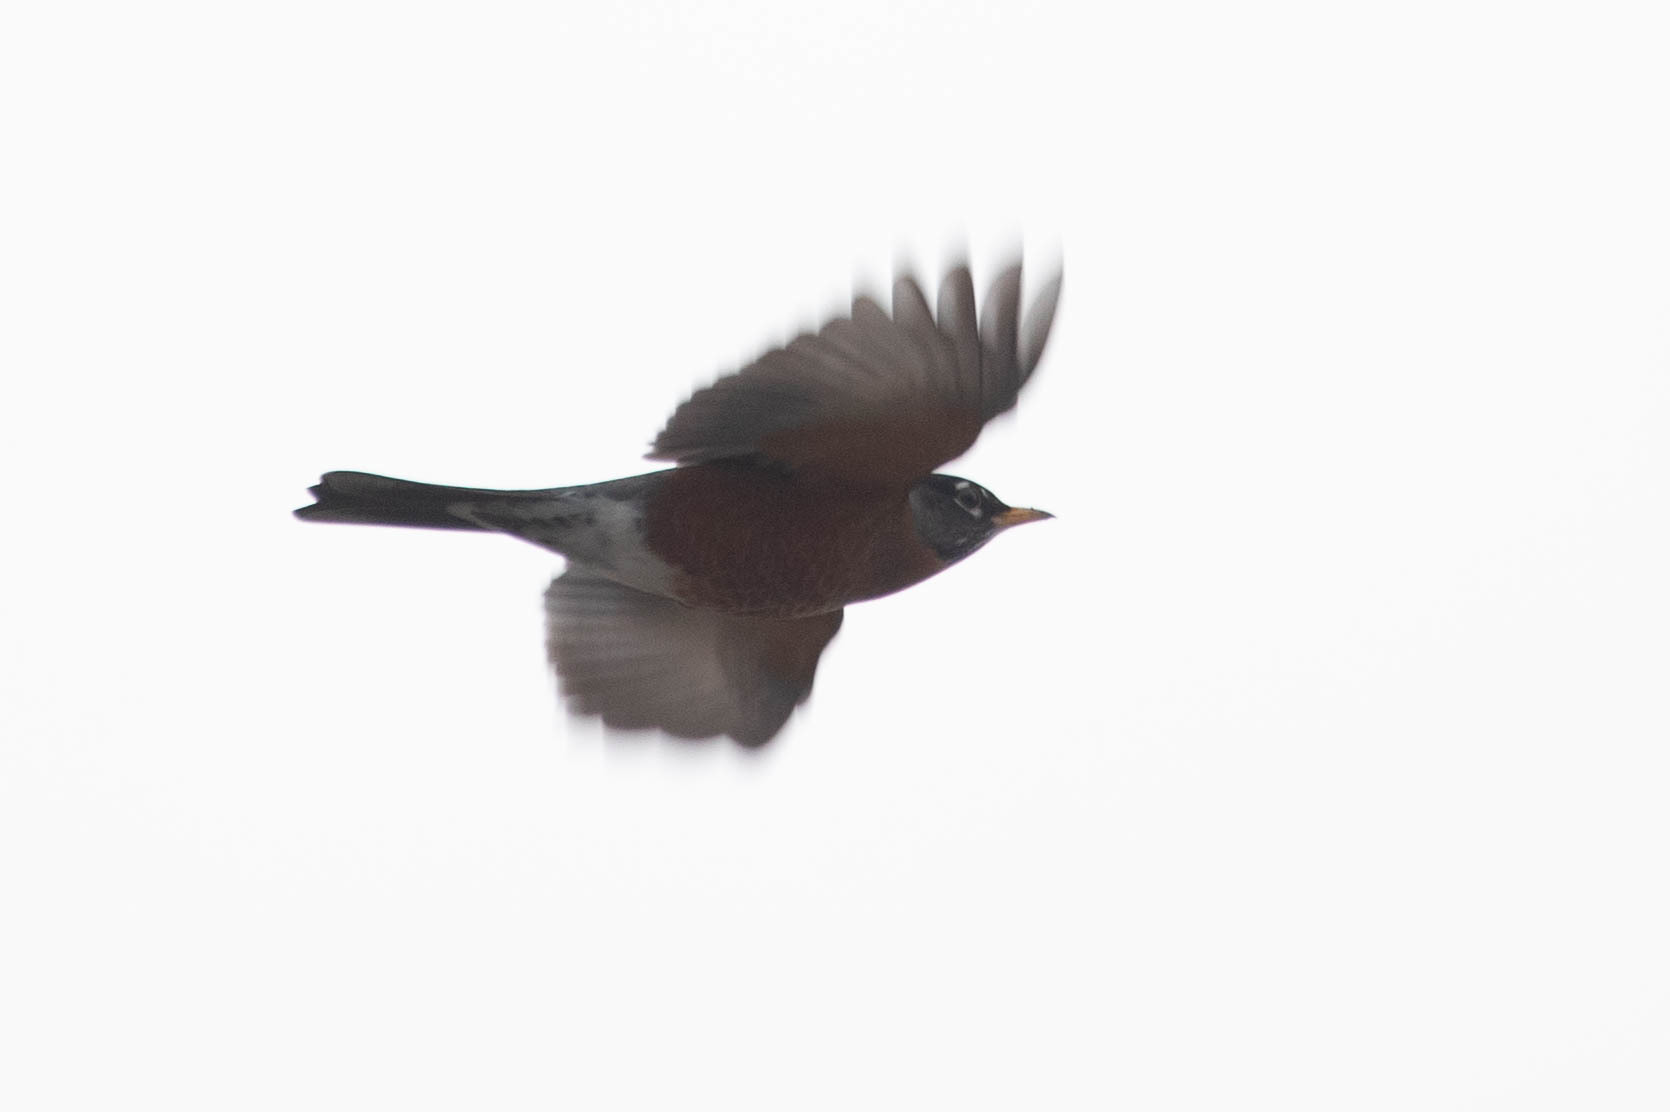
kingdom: Animalia
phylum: Chordata
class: Aves
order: Passeriformes
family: Turdidae
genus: Turdus
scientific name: Turdus migratorius
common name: American robin
